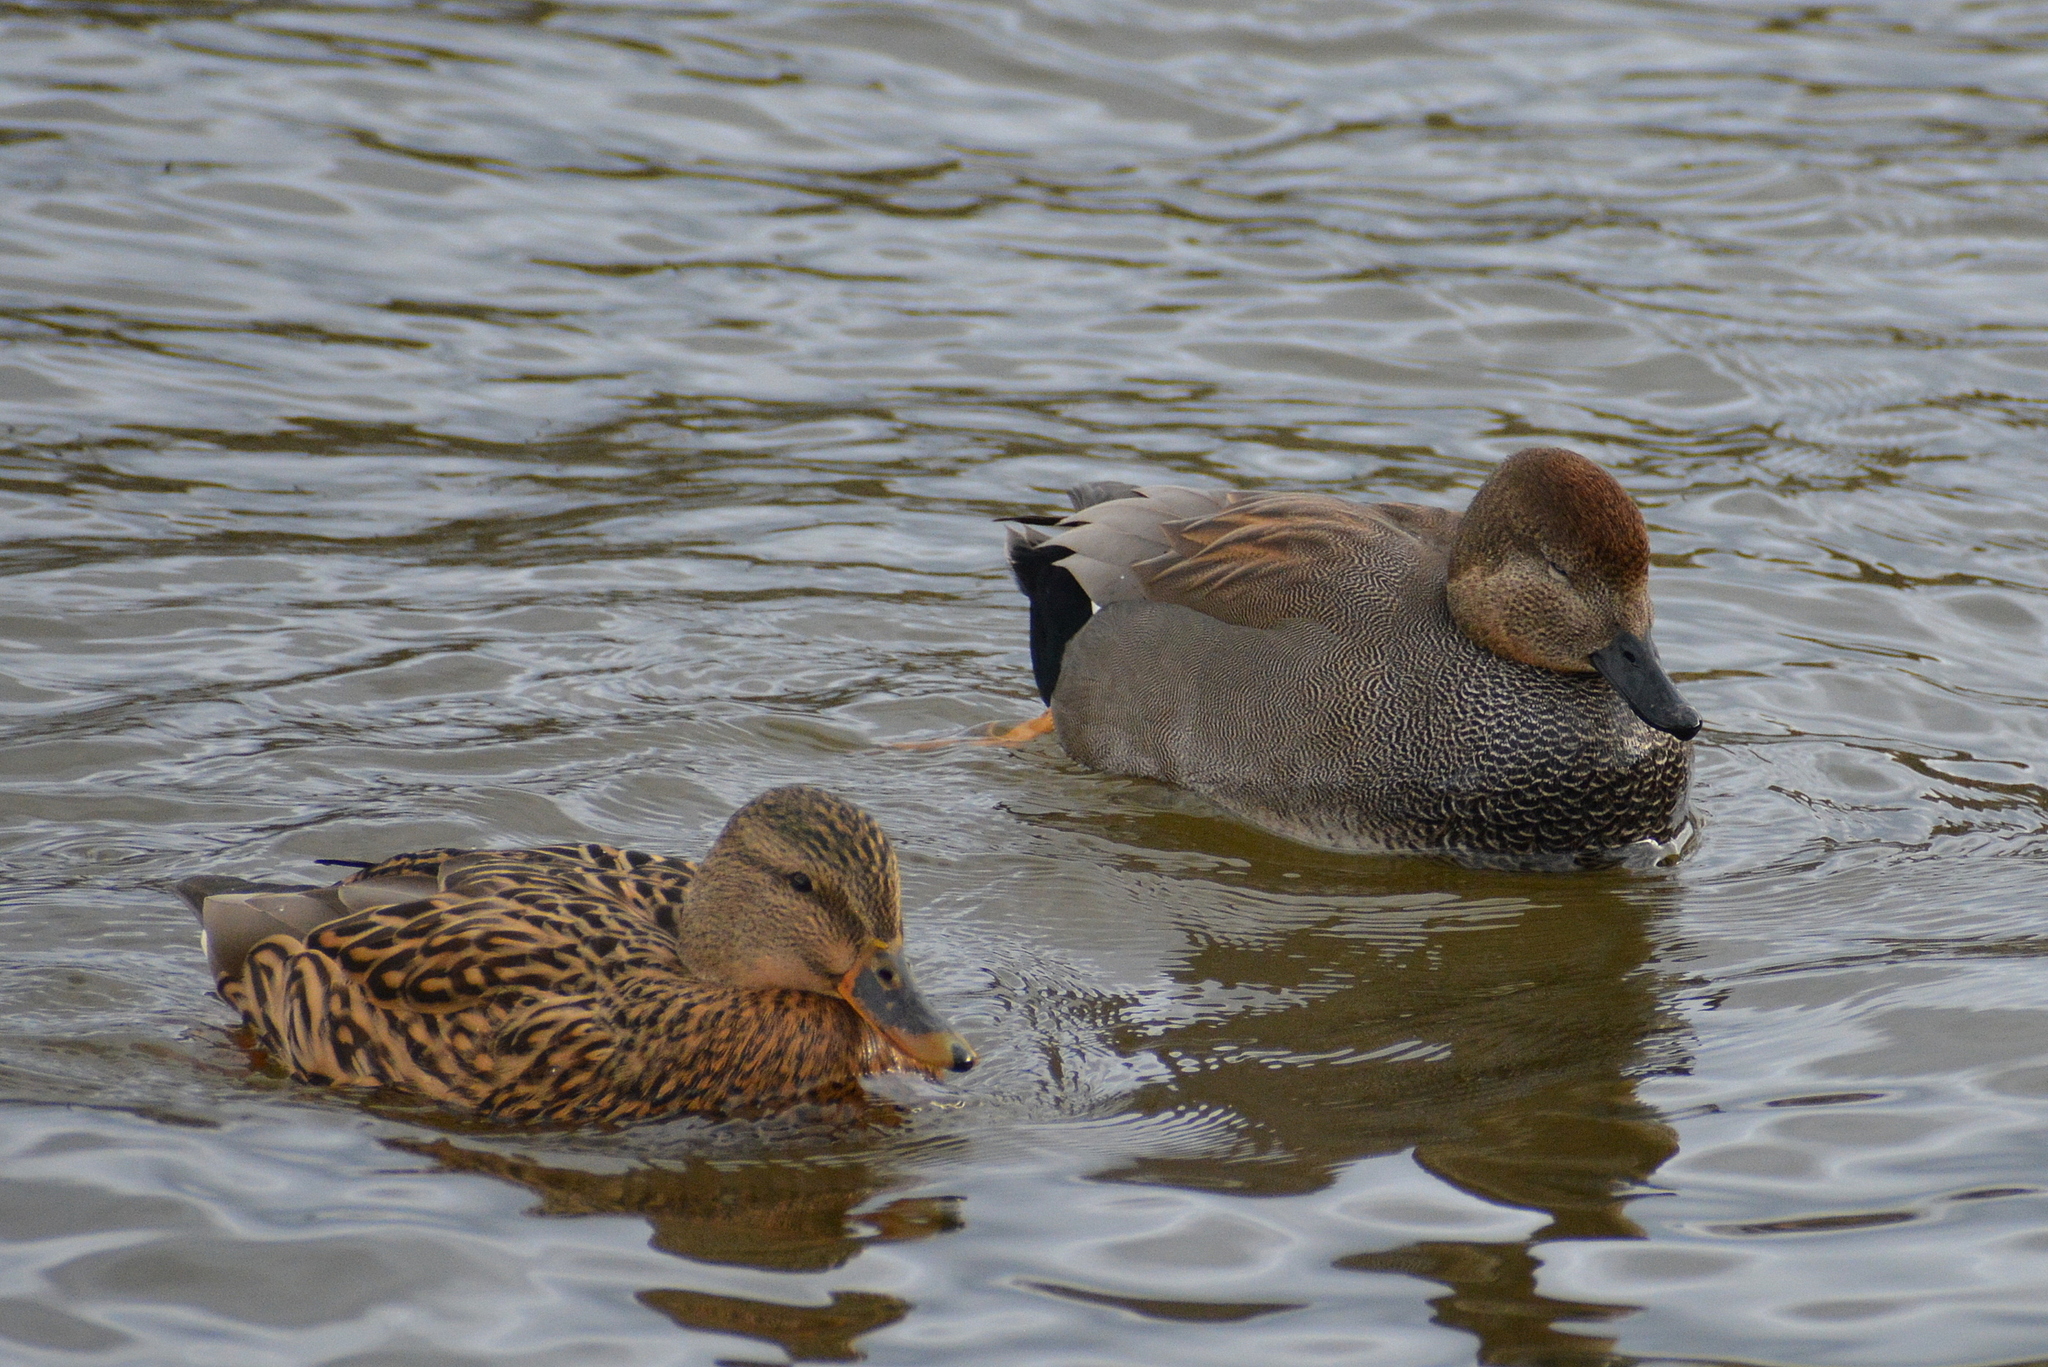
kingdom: Animalia
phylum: Chordata
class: Aves
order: Anseriformes
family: Anatidae
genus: Mareca
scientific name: Mareca strepera
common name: Gadwall
